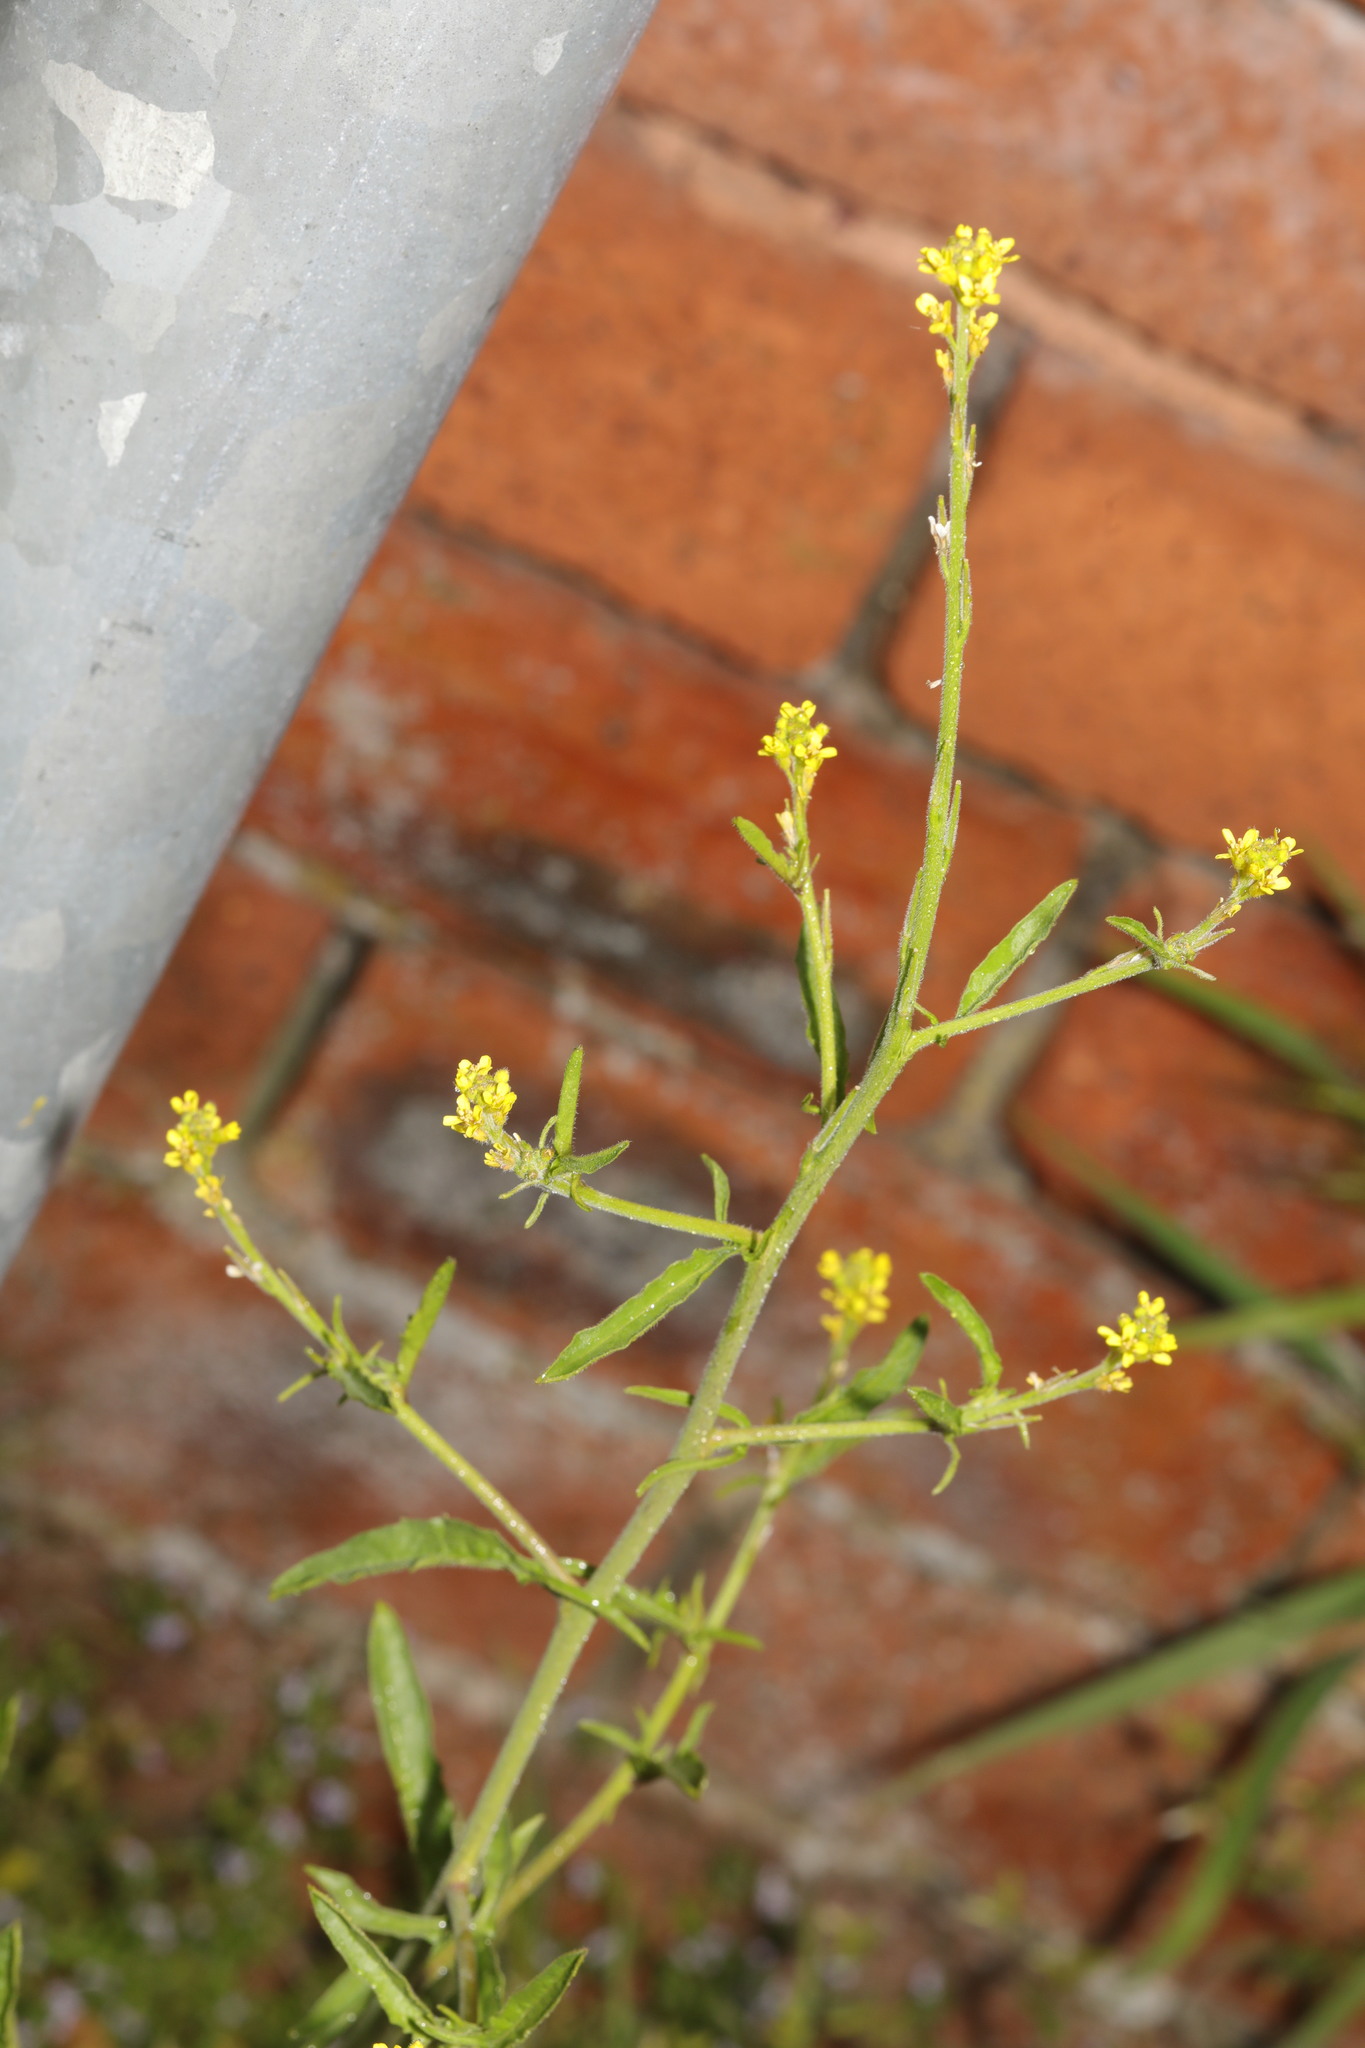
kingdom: Plantae
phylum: Tracheophyta
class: Magnoliopsida
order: Brassicales
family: Brassicaceae
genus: Sisymbrium
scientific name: Sisymbrium officinale
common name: Hedge mustard
